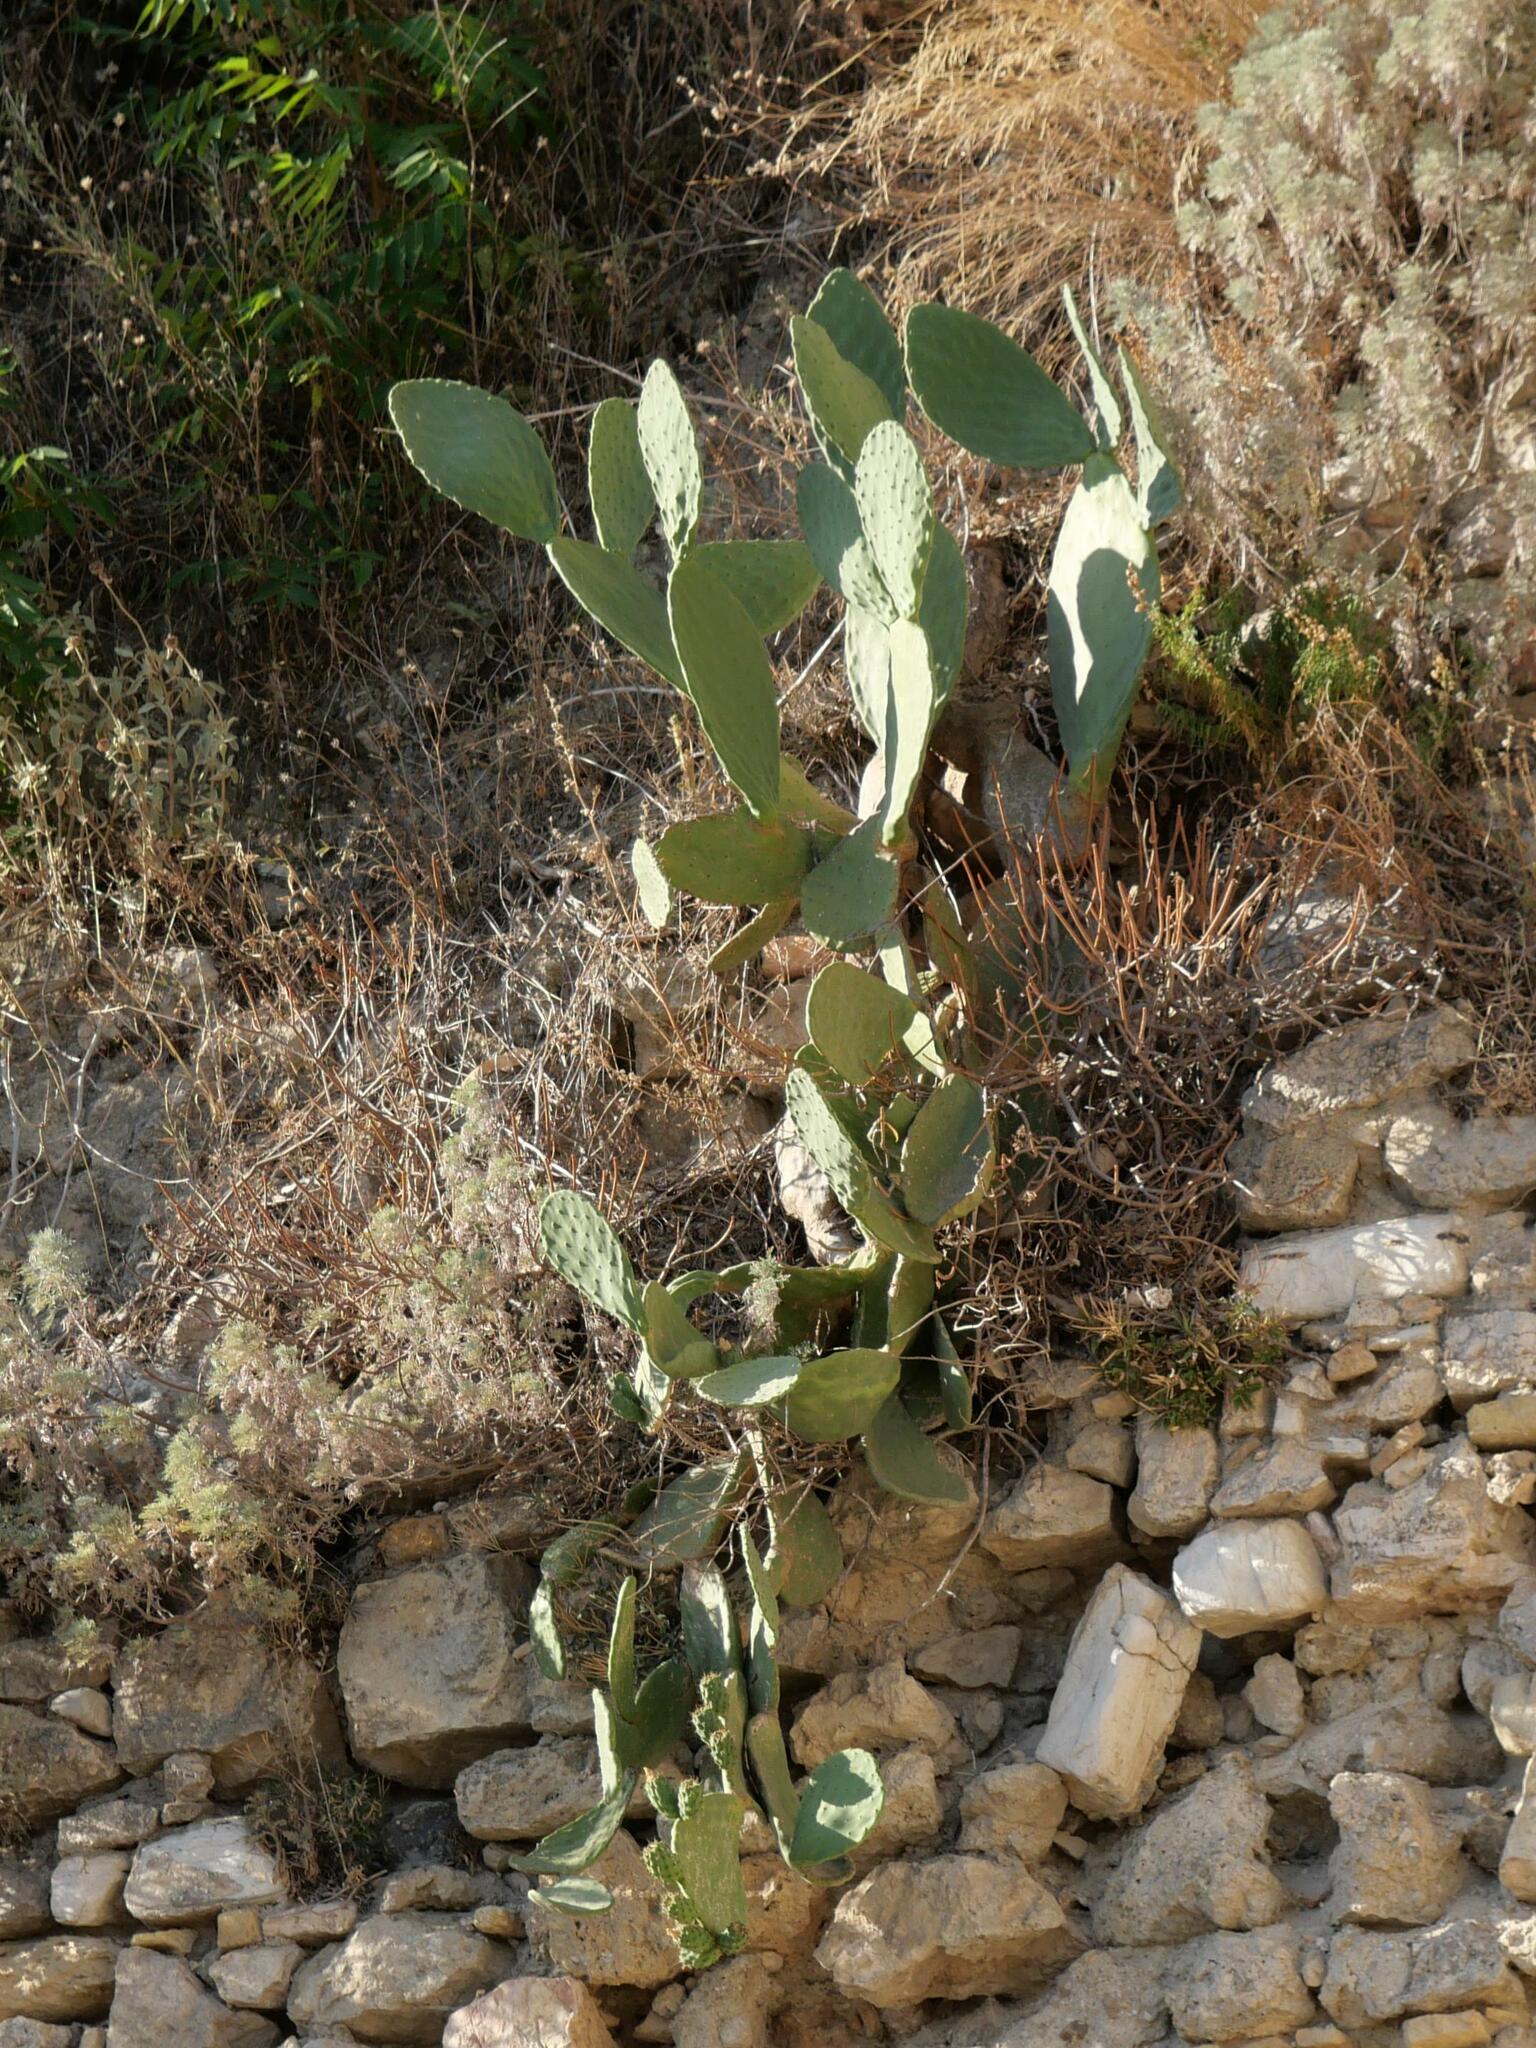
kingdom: Plantae
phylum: Tracheophyta
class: Magnoliopsida
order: Caryophyllales
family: Cactaceae
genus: Opuntia
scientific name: Opuntia ficus-indica
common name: Barbary fig
